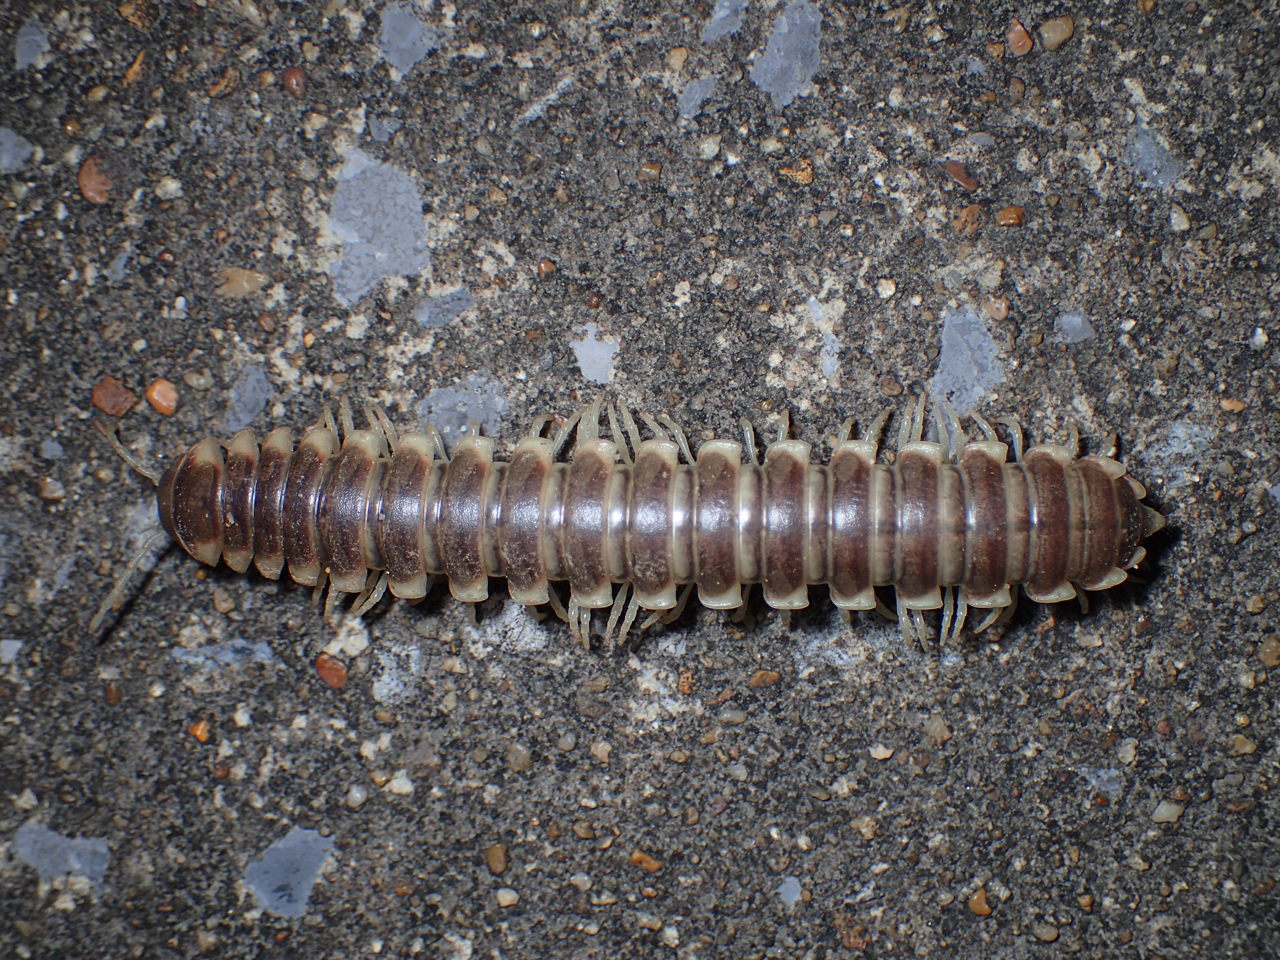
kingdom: Animalia
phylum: Arthropoda
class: Diplopoda
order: Polydesmida
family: Xystodesmidae
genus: Pachydesmus
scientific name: Pachydesmus hubrichti
